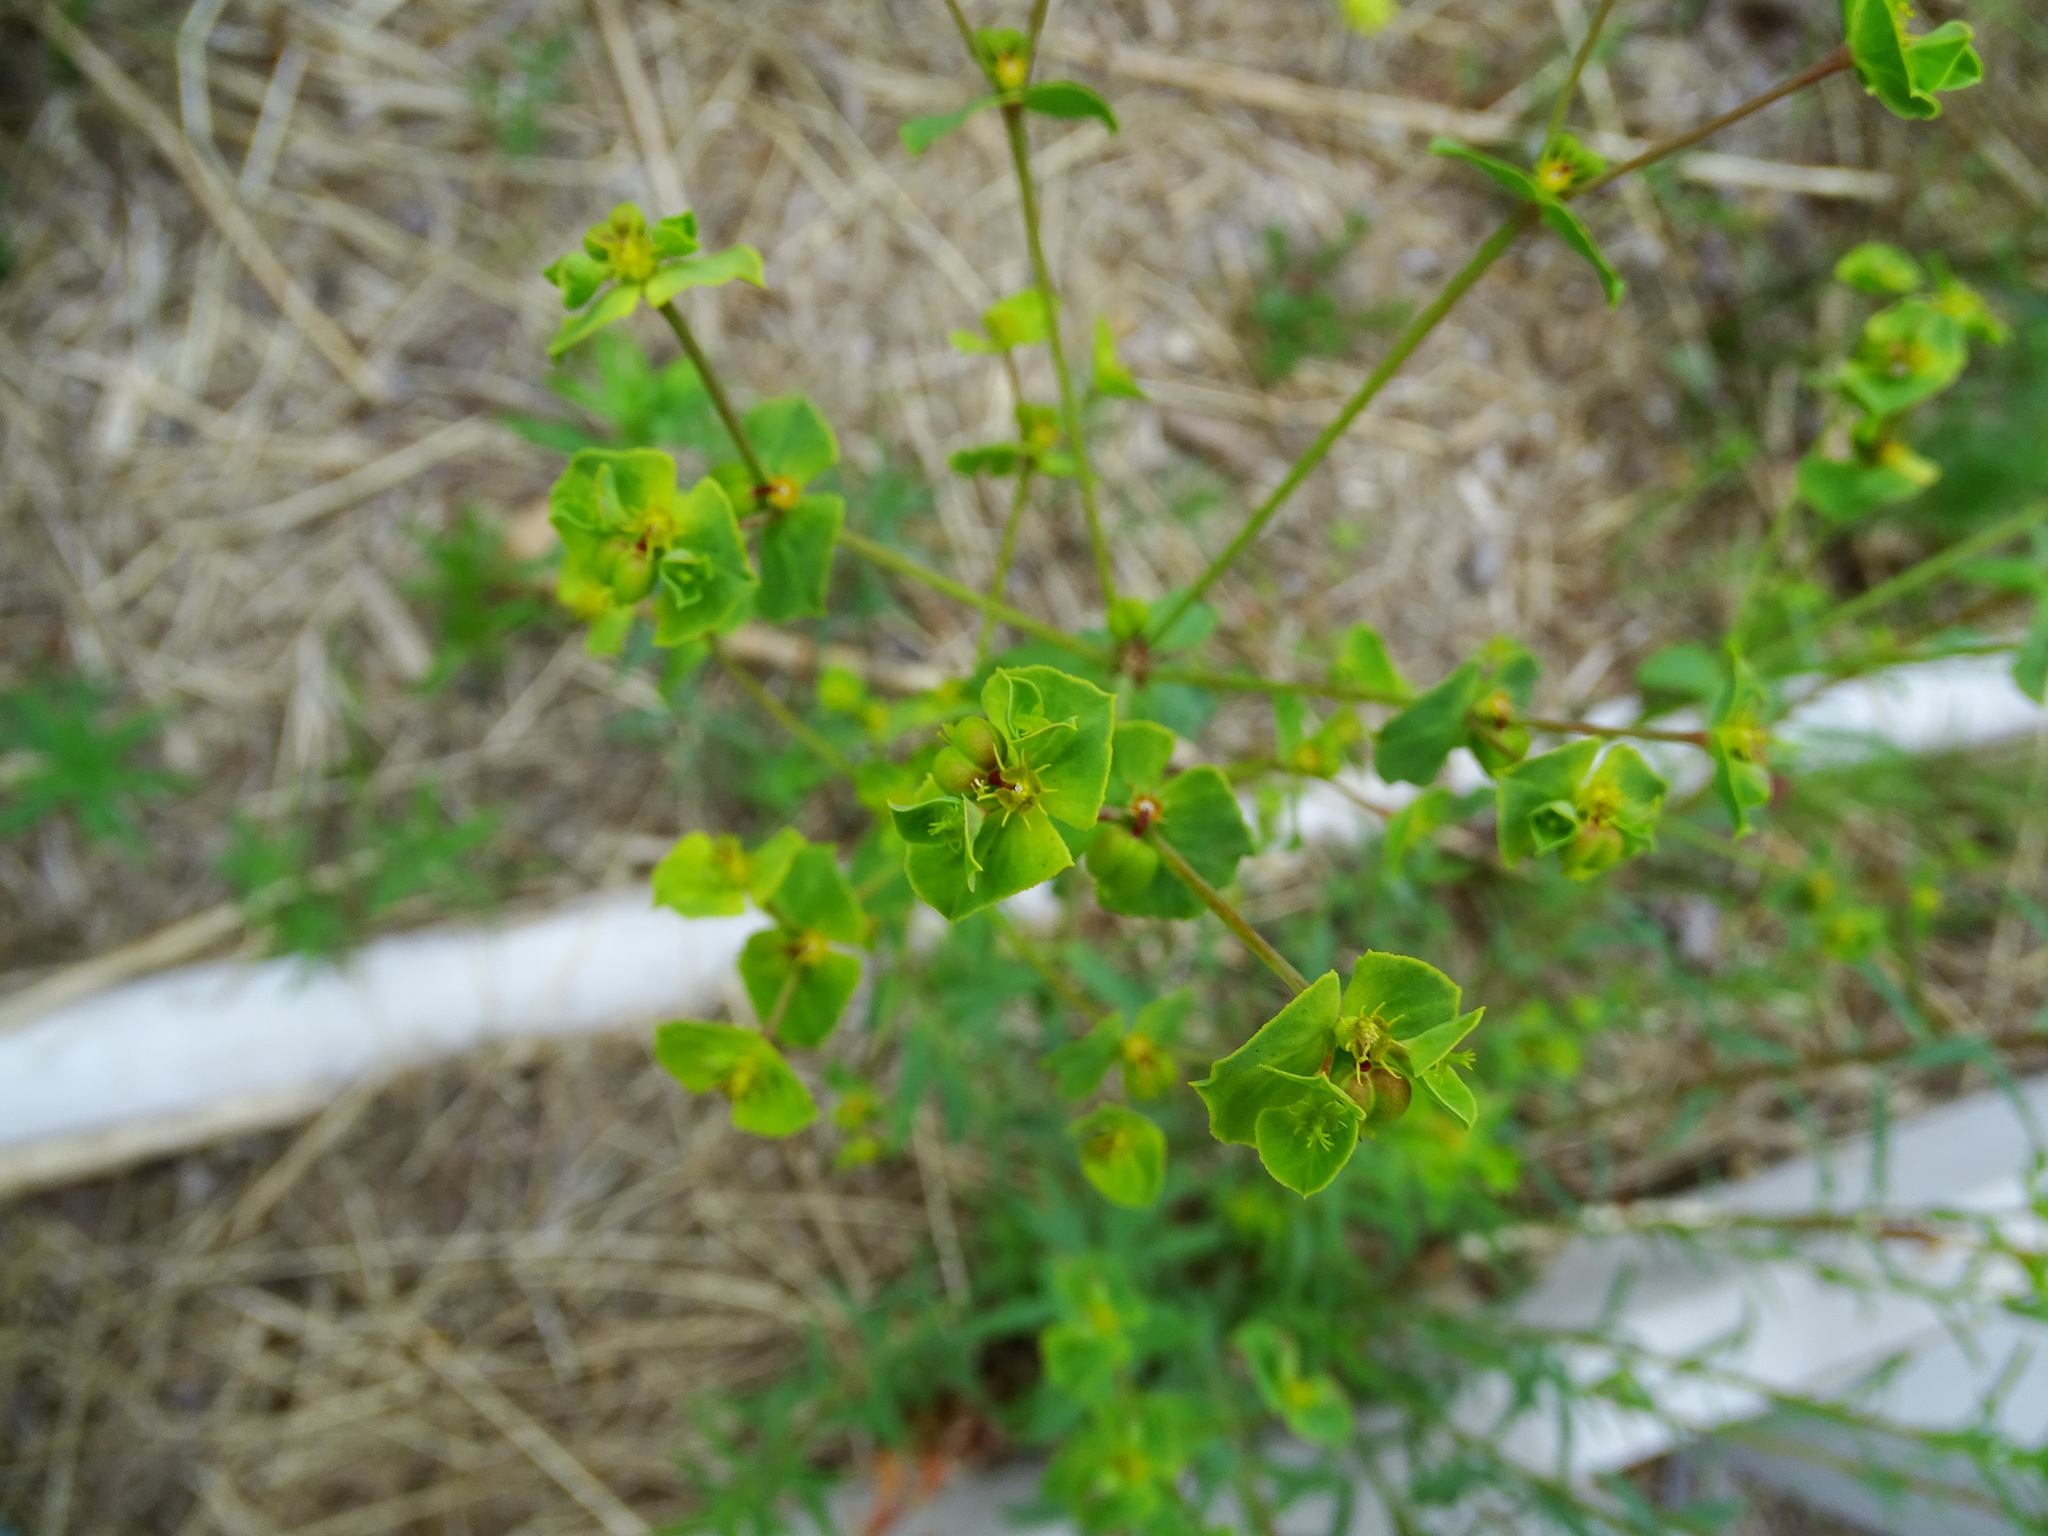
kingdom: Plantae
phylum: Tracheophyta
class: Magnoliopsida
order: Malpighiales
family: Euphorbiaceae
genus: Euphorbia
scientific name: Euphorbia terracina
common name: Geraldton carnation weed
